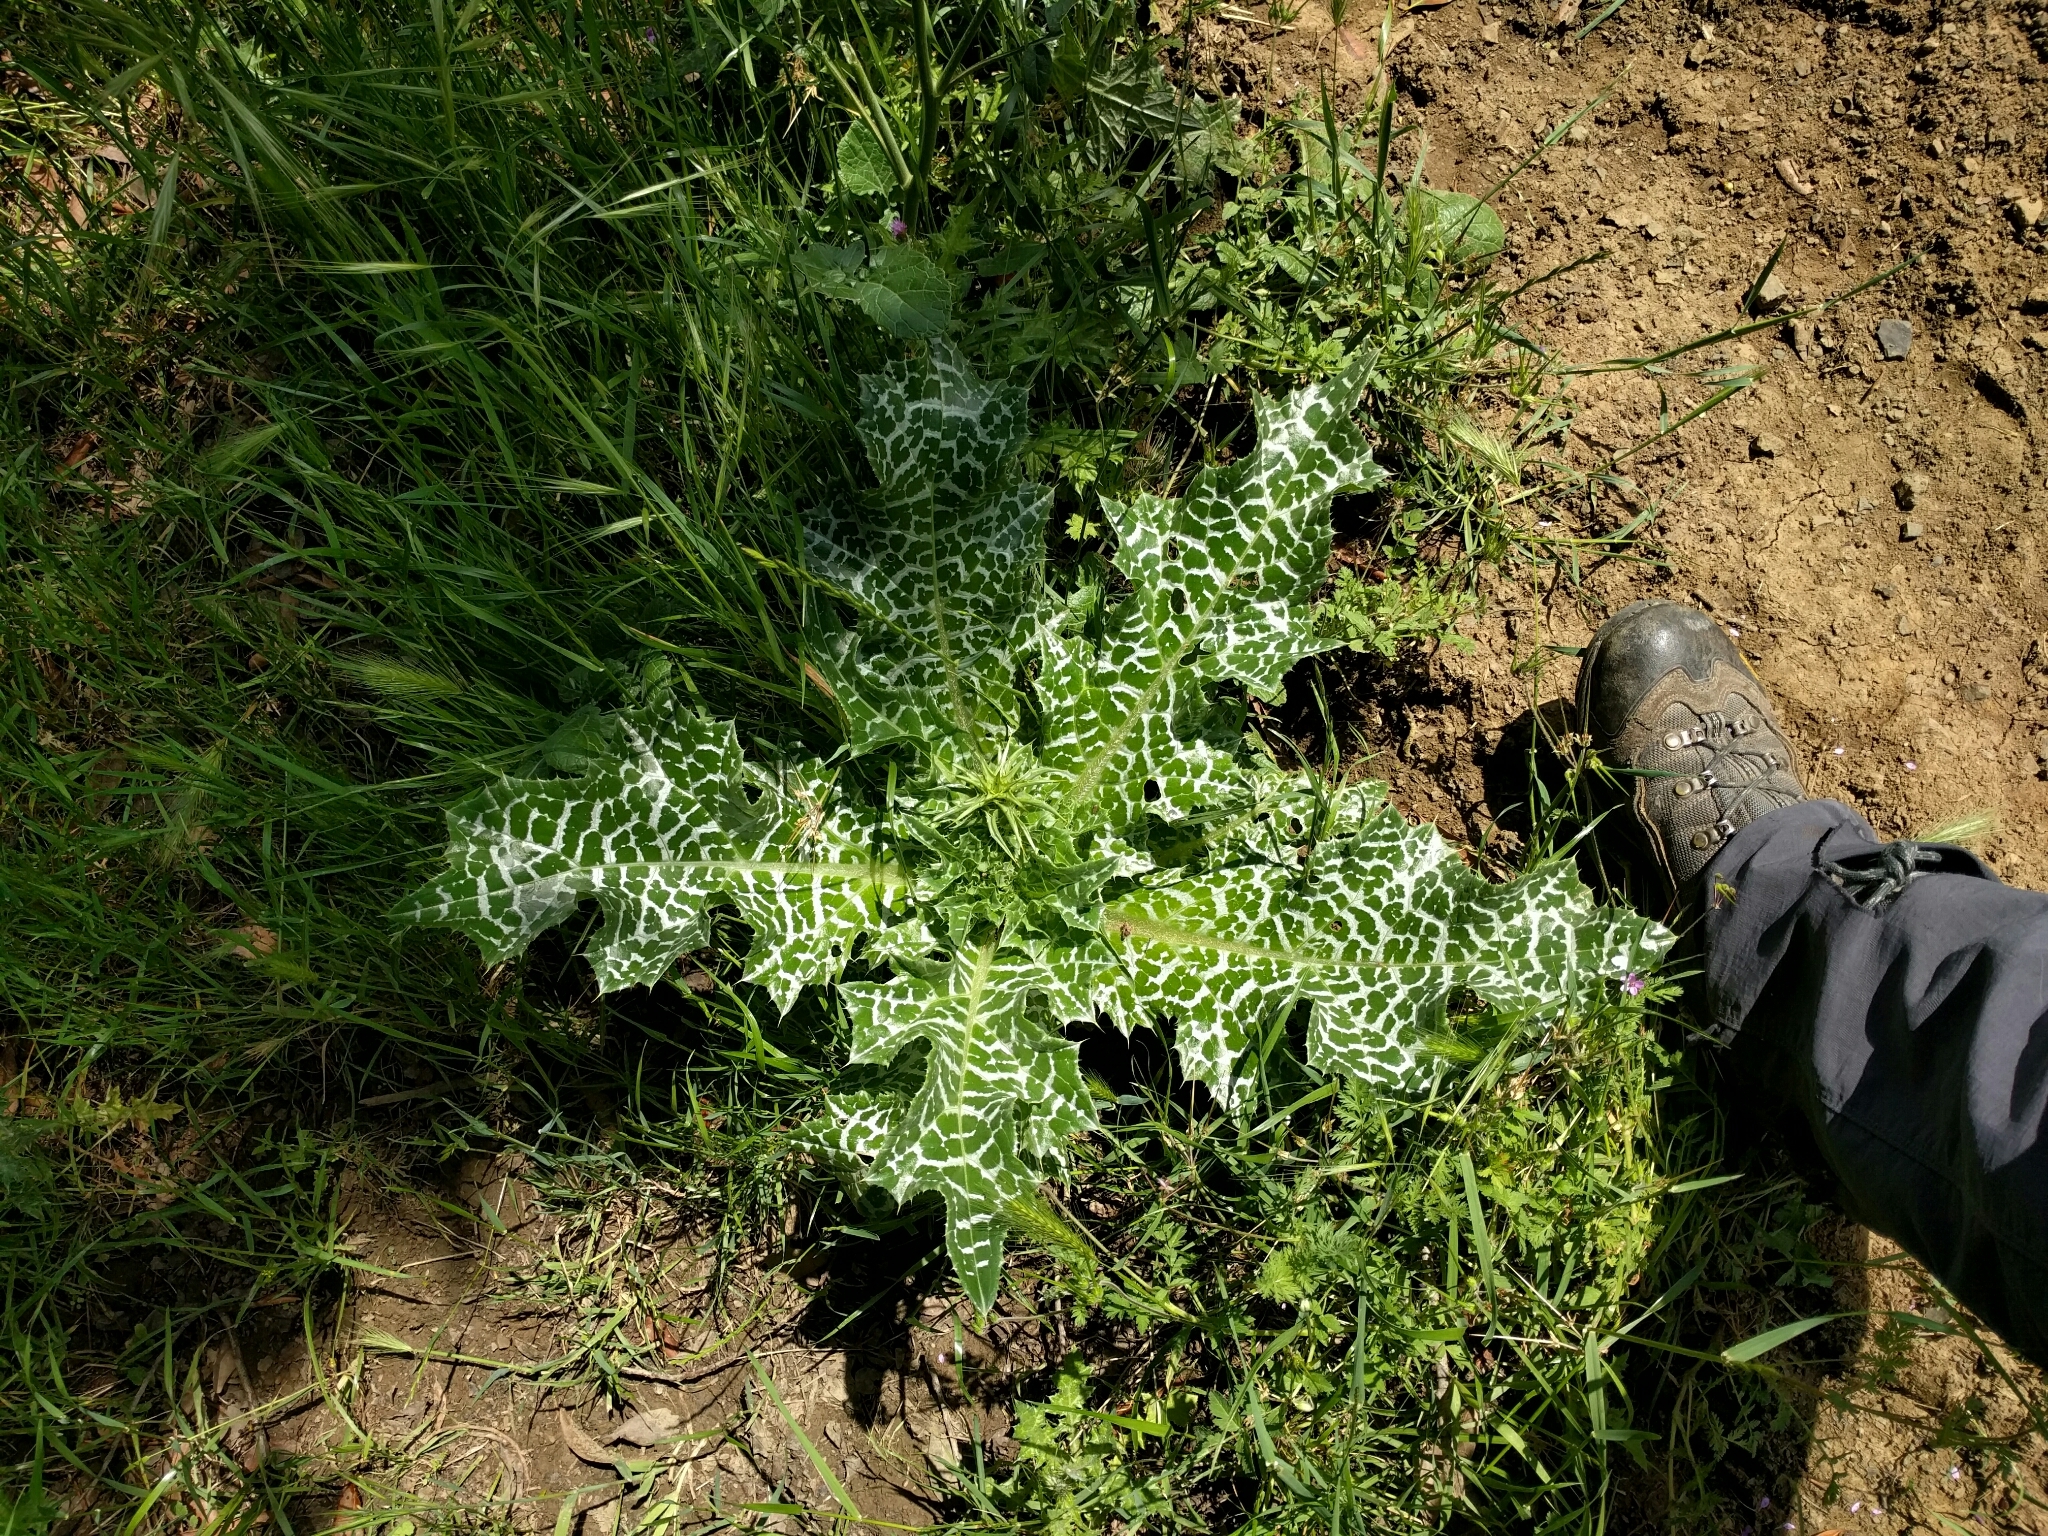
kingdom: Plantae
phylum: Tracheophyta
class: Magnoliopsida
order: Asterales
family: Asteraceae
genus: Silybum
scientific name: Silybum marianum
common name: Milk thistle
